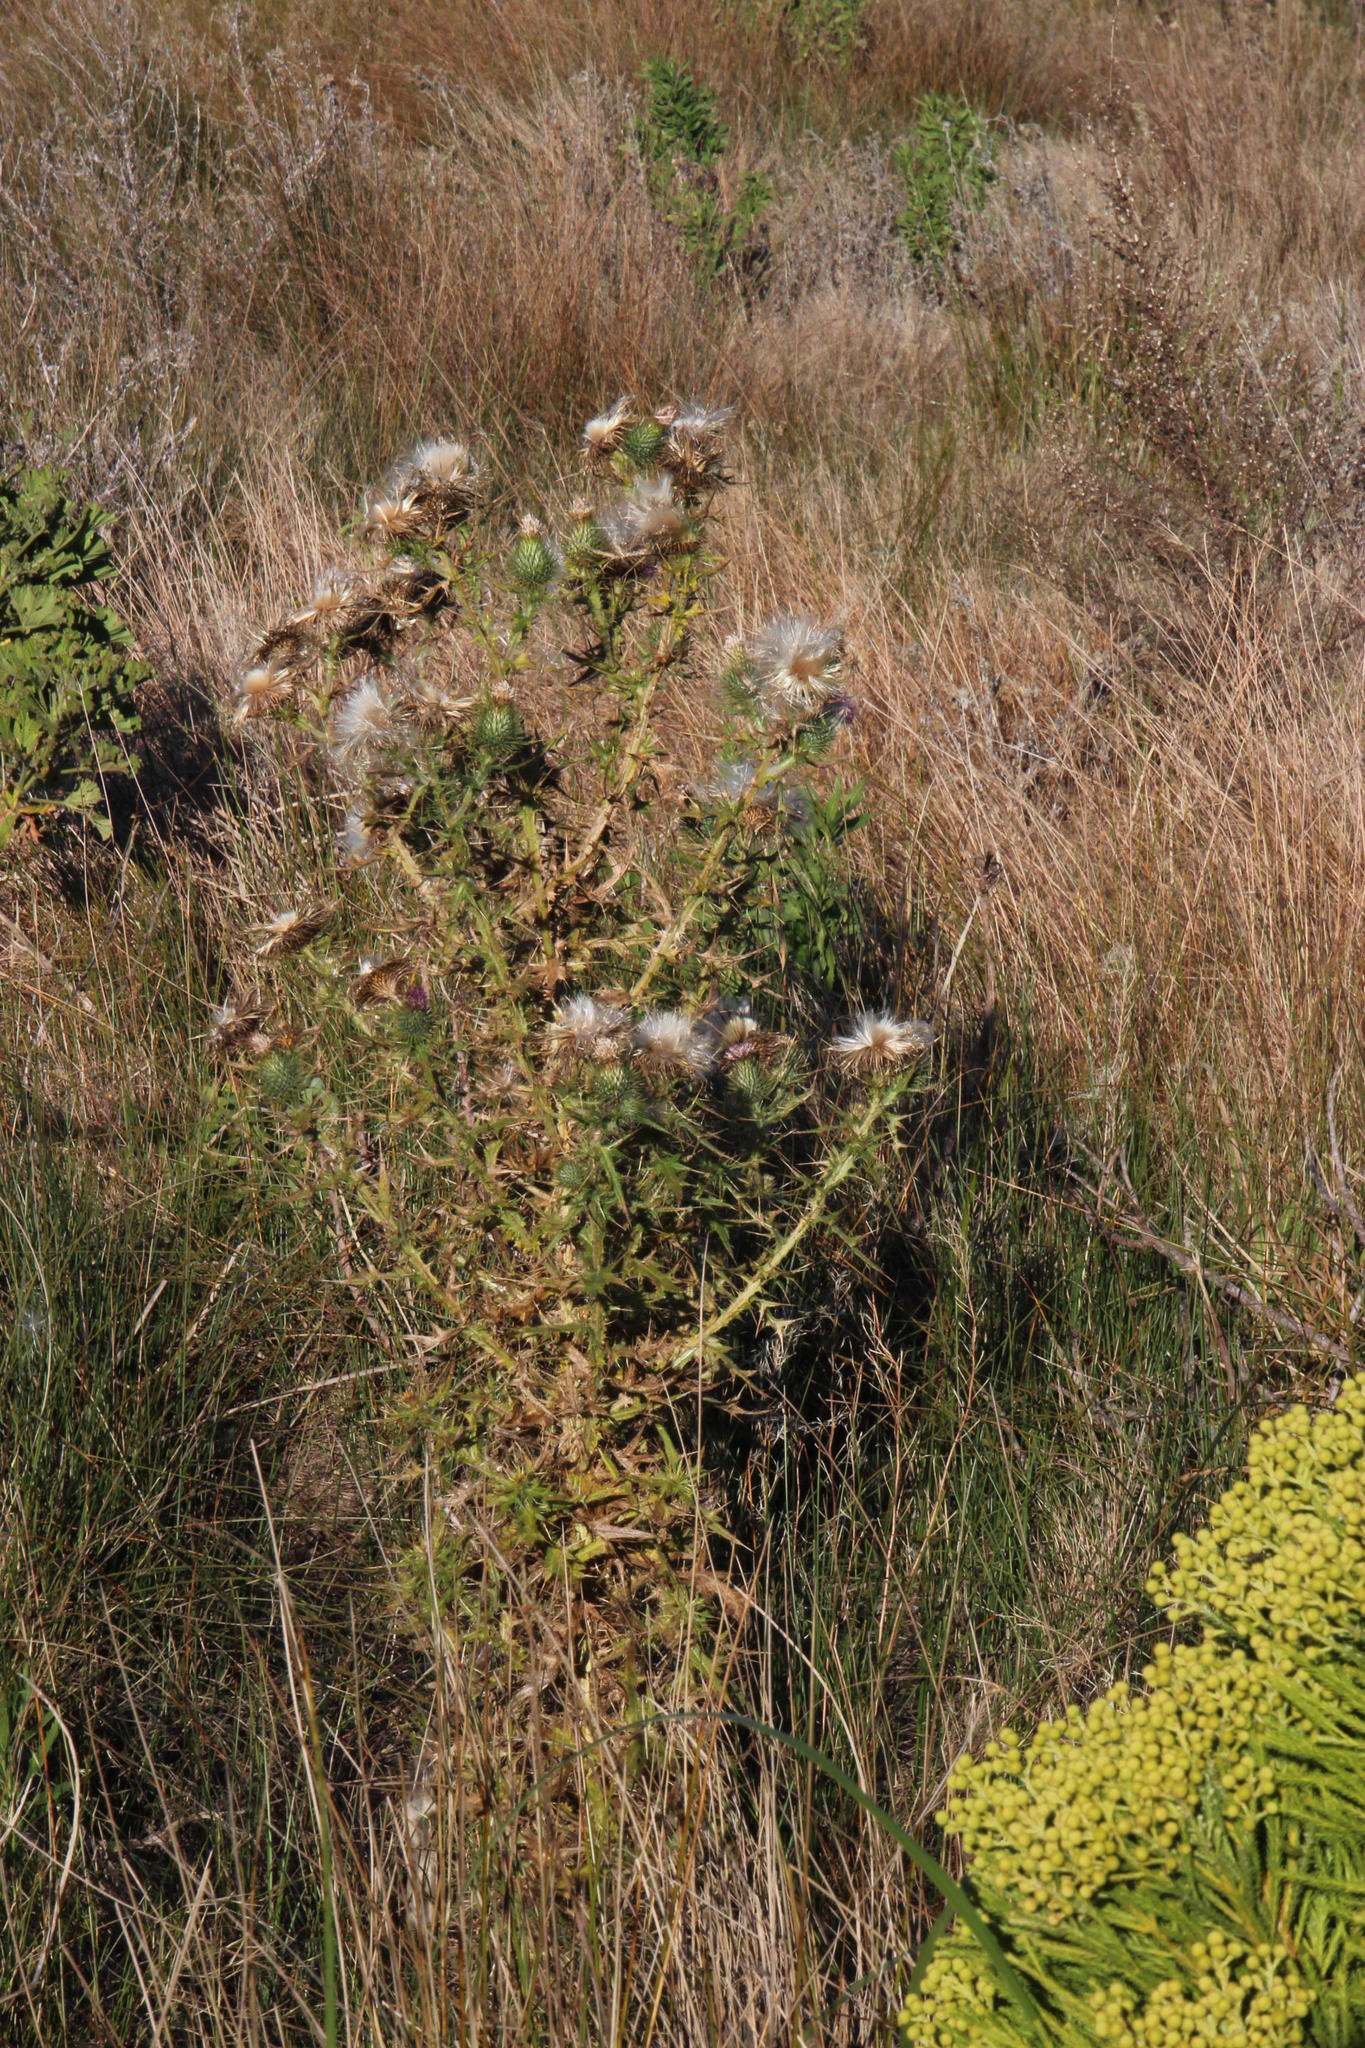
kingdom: Plantae
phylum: Tracheophyta
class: Magnoliopsida
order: Asterales
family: Asteraceae
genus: Cirsium
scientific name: Cirsium vulgare
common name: Bull thistle
